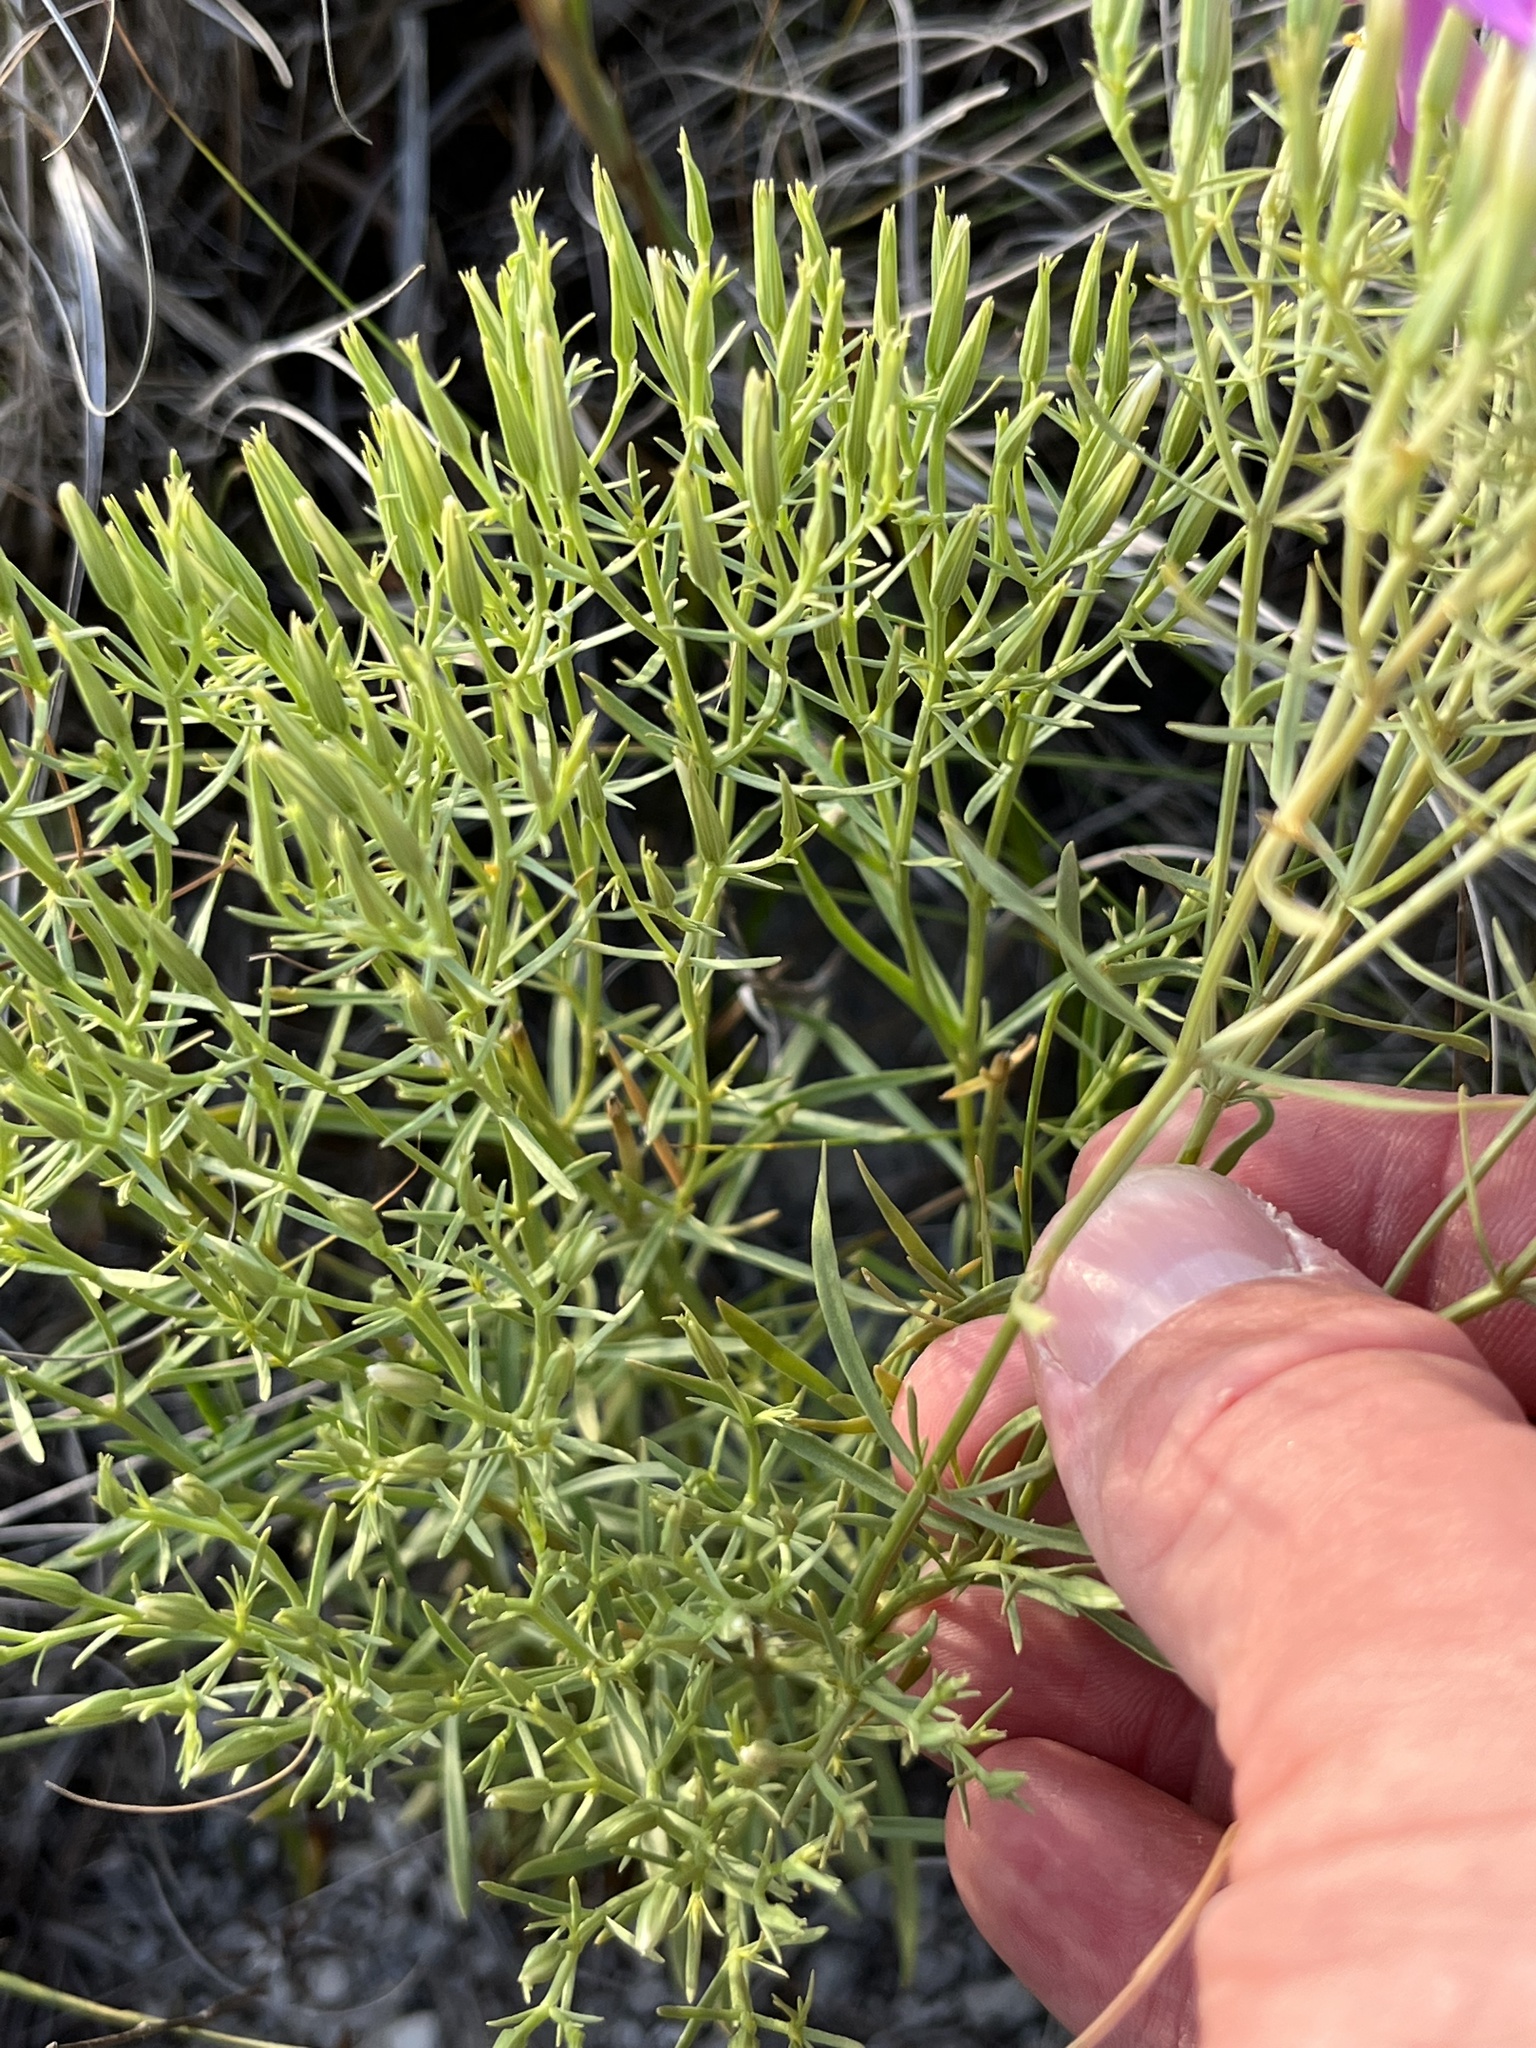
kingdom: Plantae
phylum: Tracheophyta
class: Magnoliopsida
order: Gentianales
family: Gentianaceae
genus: Zeltnera
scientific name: Zeltnera beyrichii
